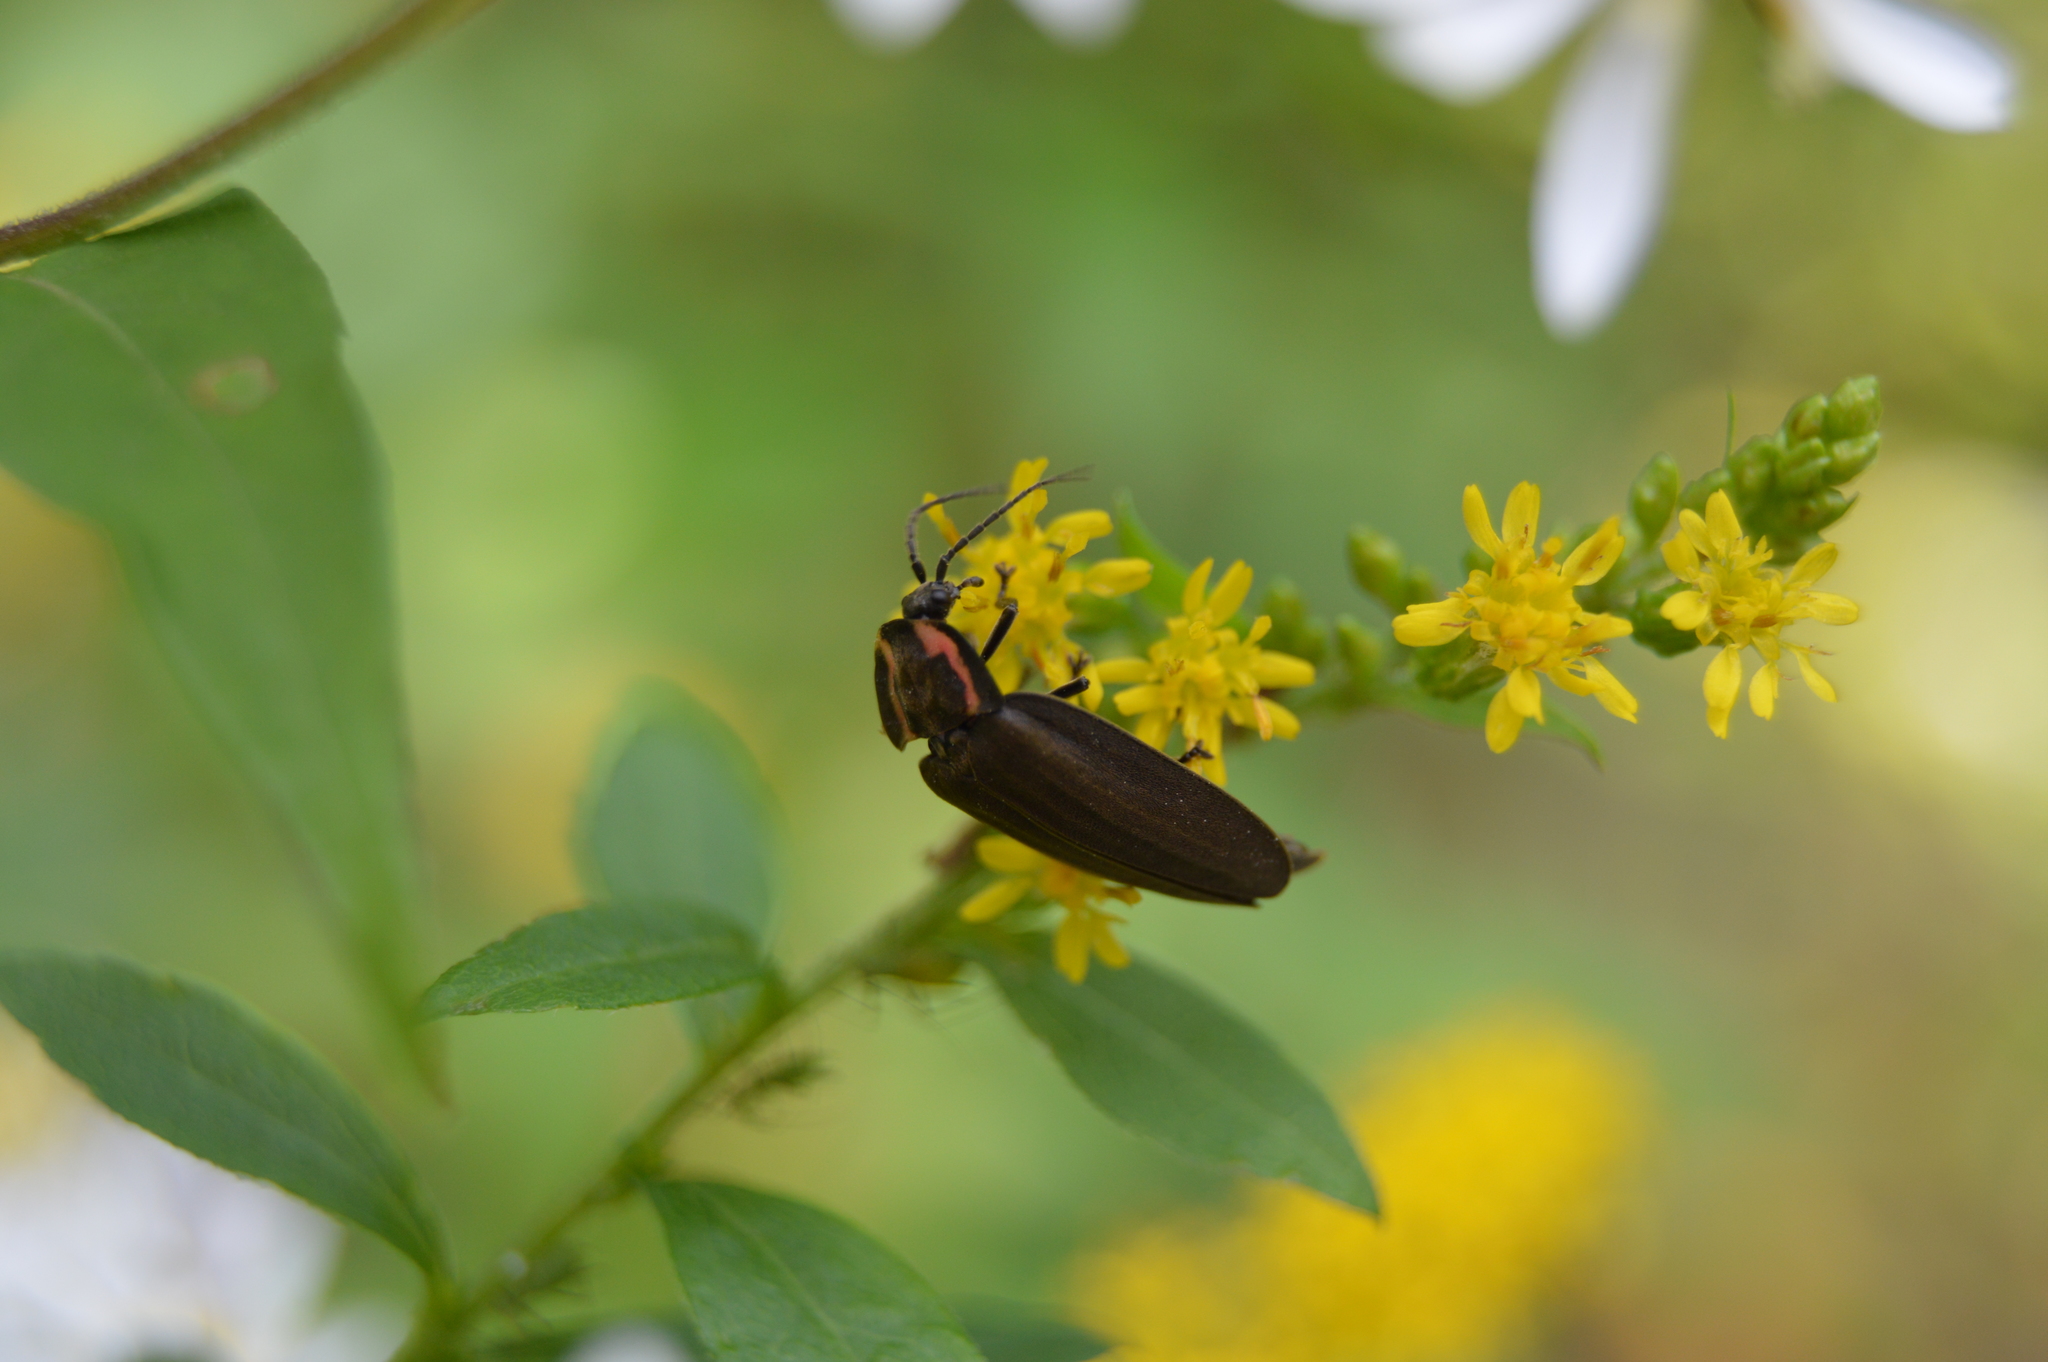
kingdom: Animalia
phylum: Arthropoda
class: Insecta
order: Coleoptera
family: Lampyridae
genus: Photinus
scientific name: Photinus corrusca
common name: Winter firefly
